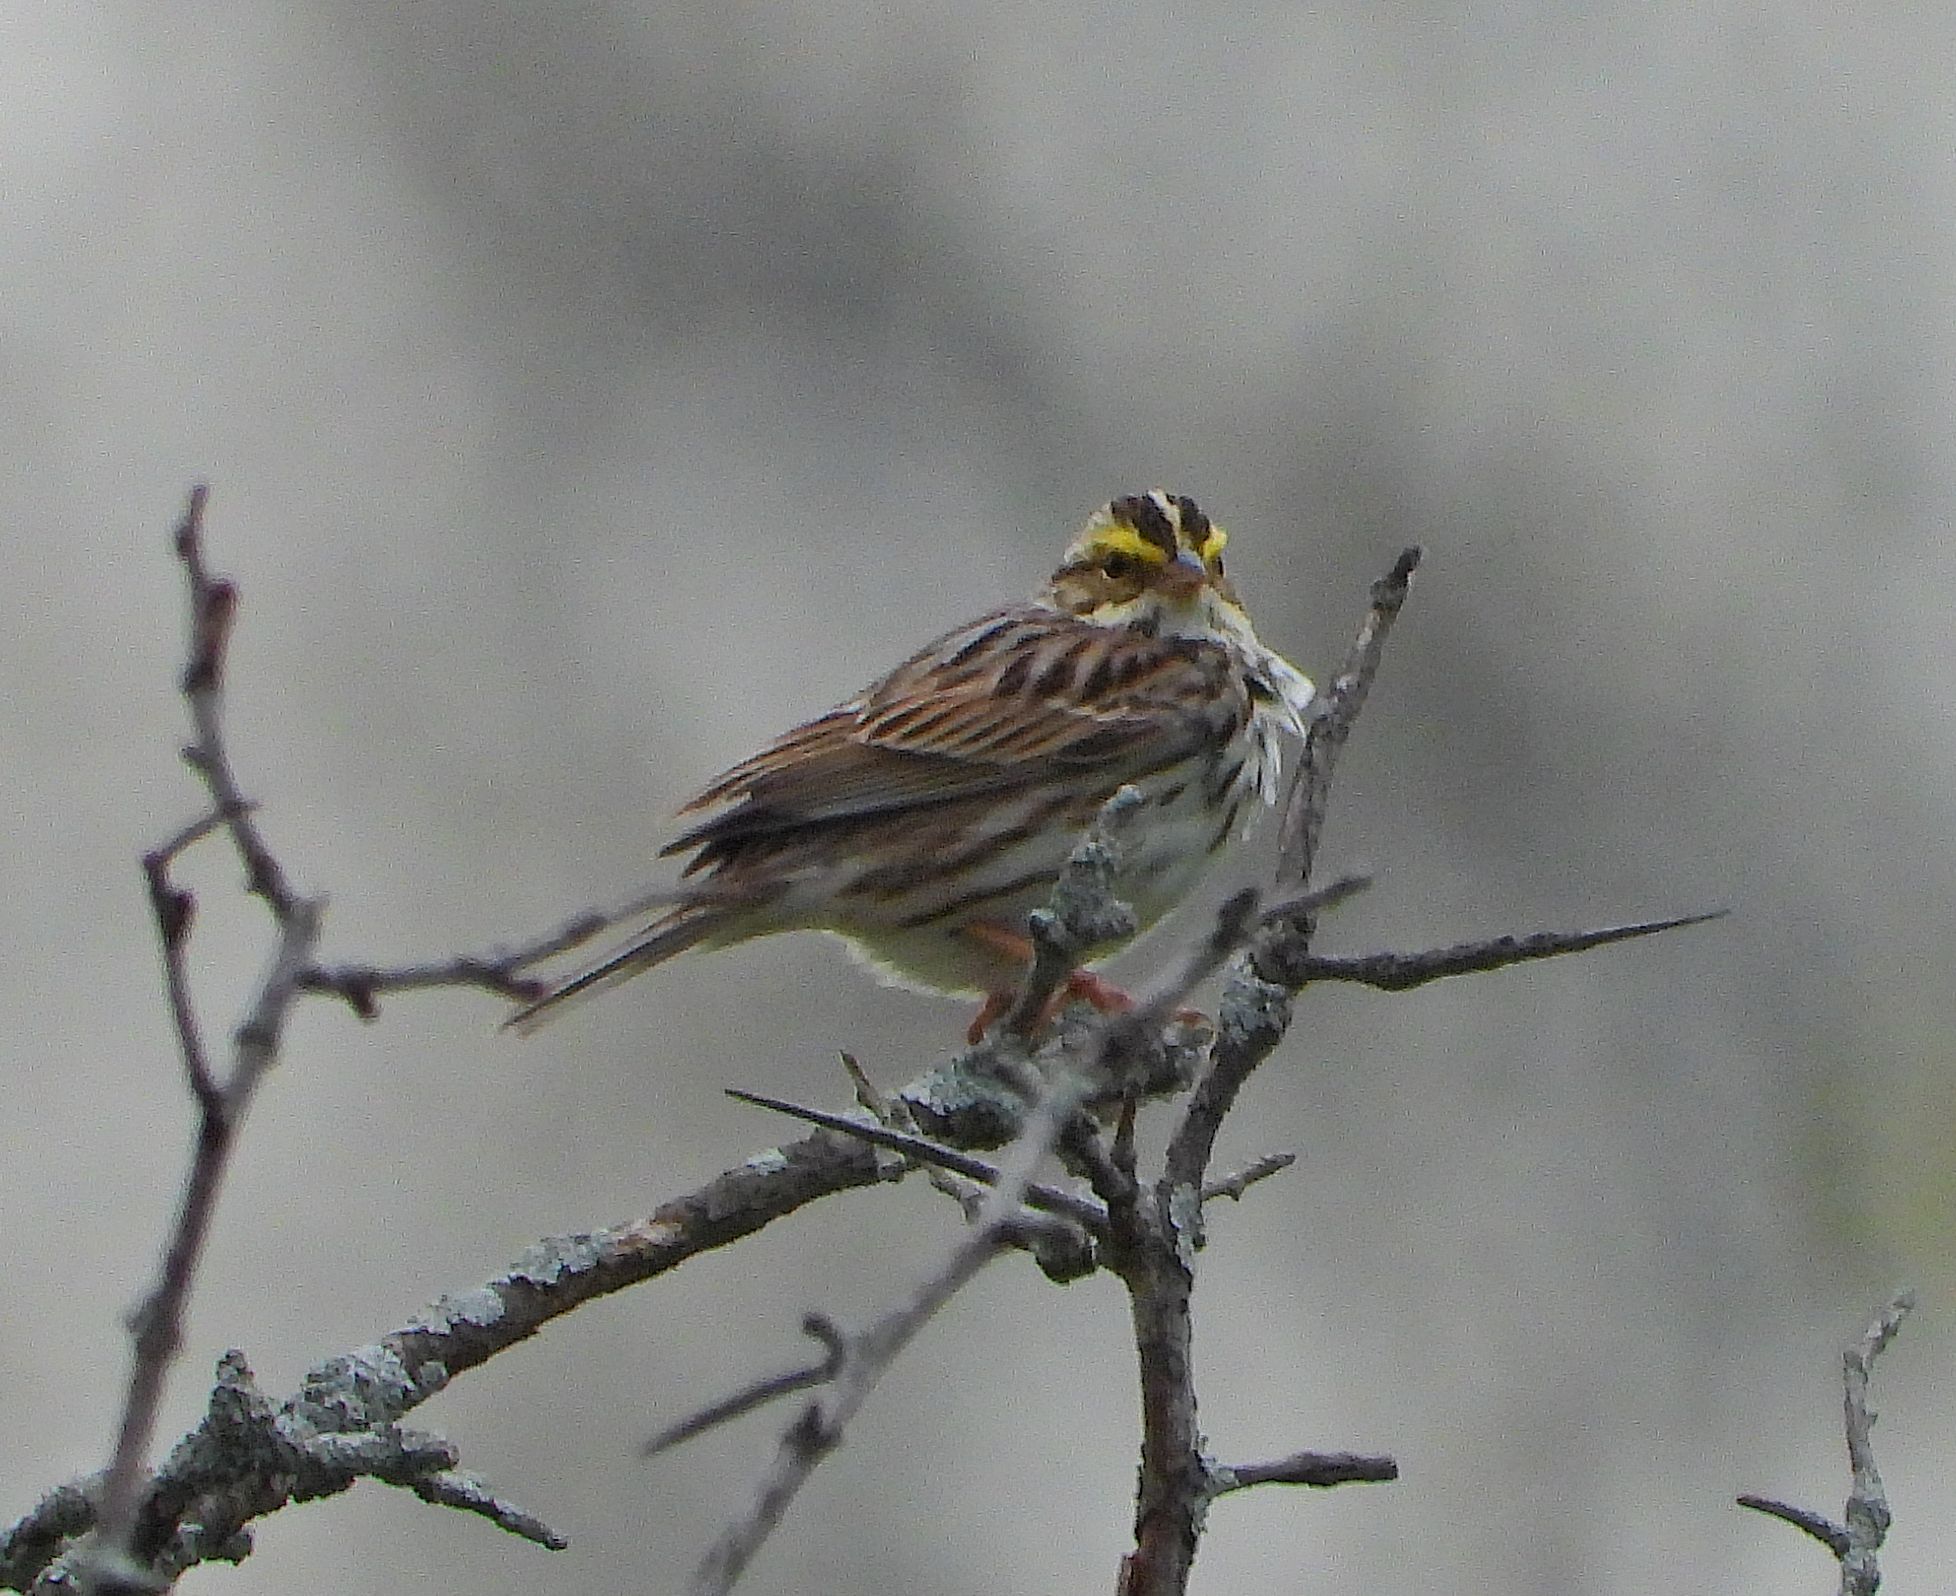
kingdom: Animalia
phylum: Chordata
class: Aves
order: Passeriformes
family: Passerellidae
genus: Passerculus
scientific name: Passerculus sandwichensis
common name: Savannah sparrow
